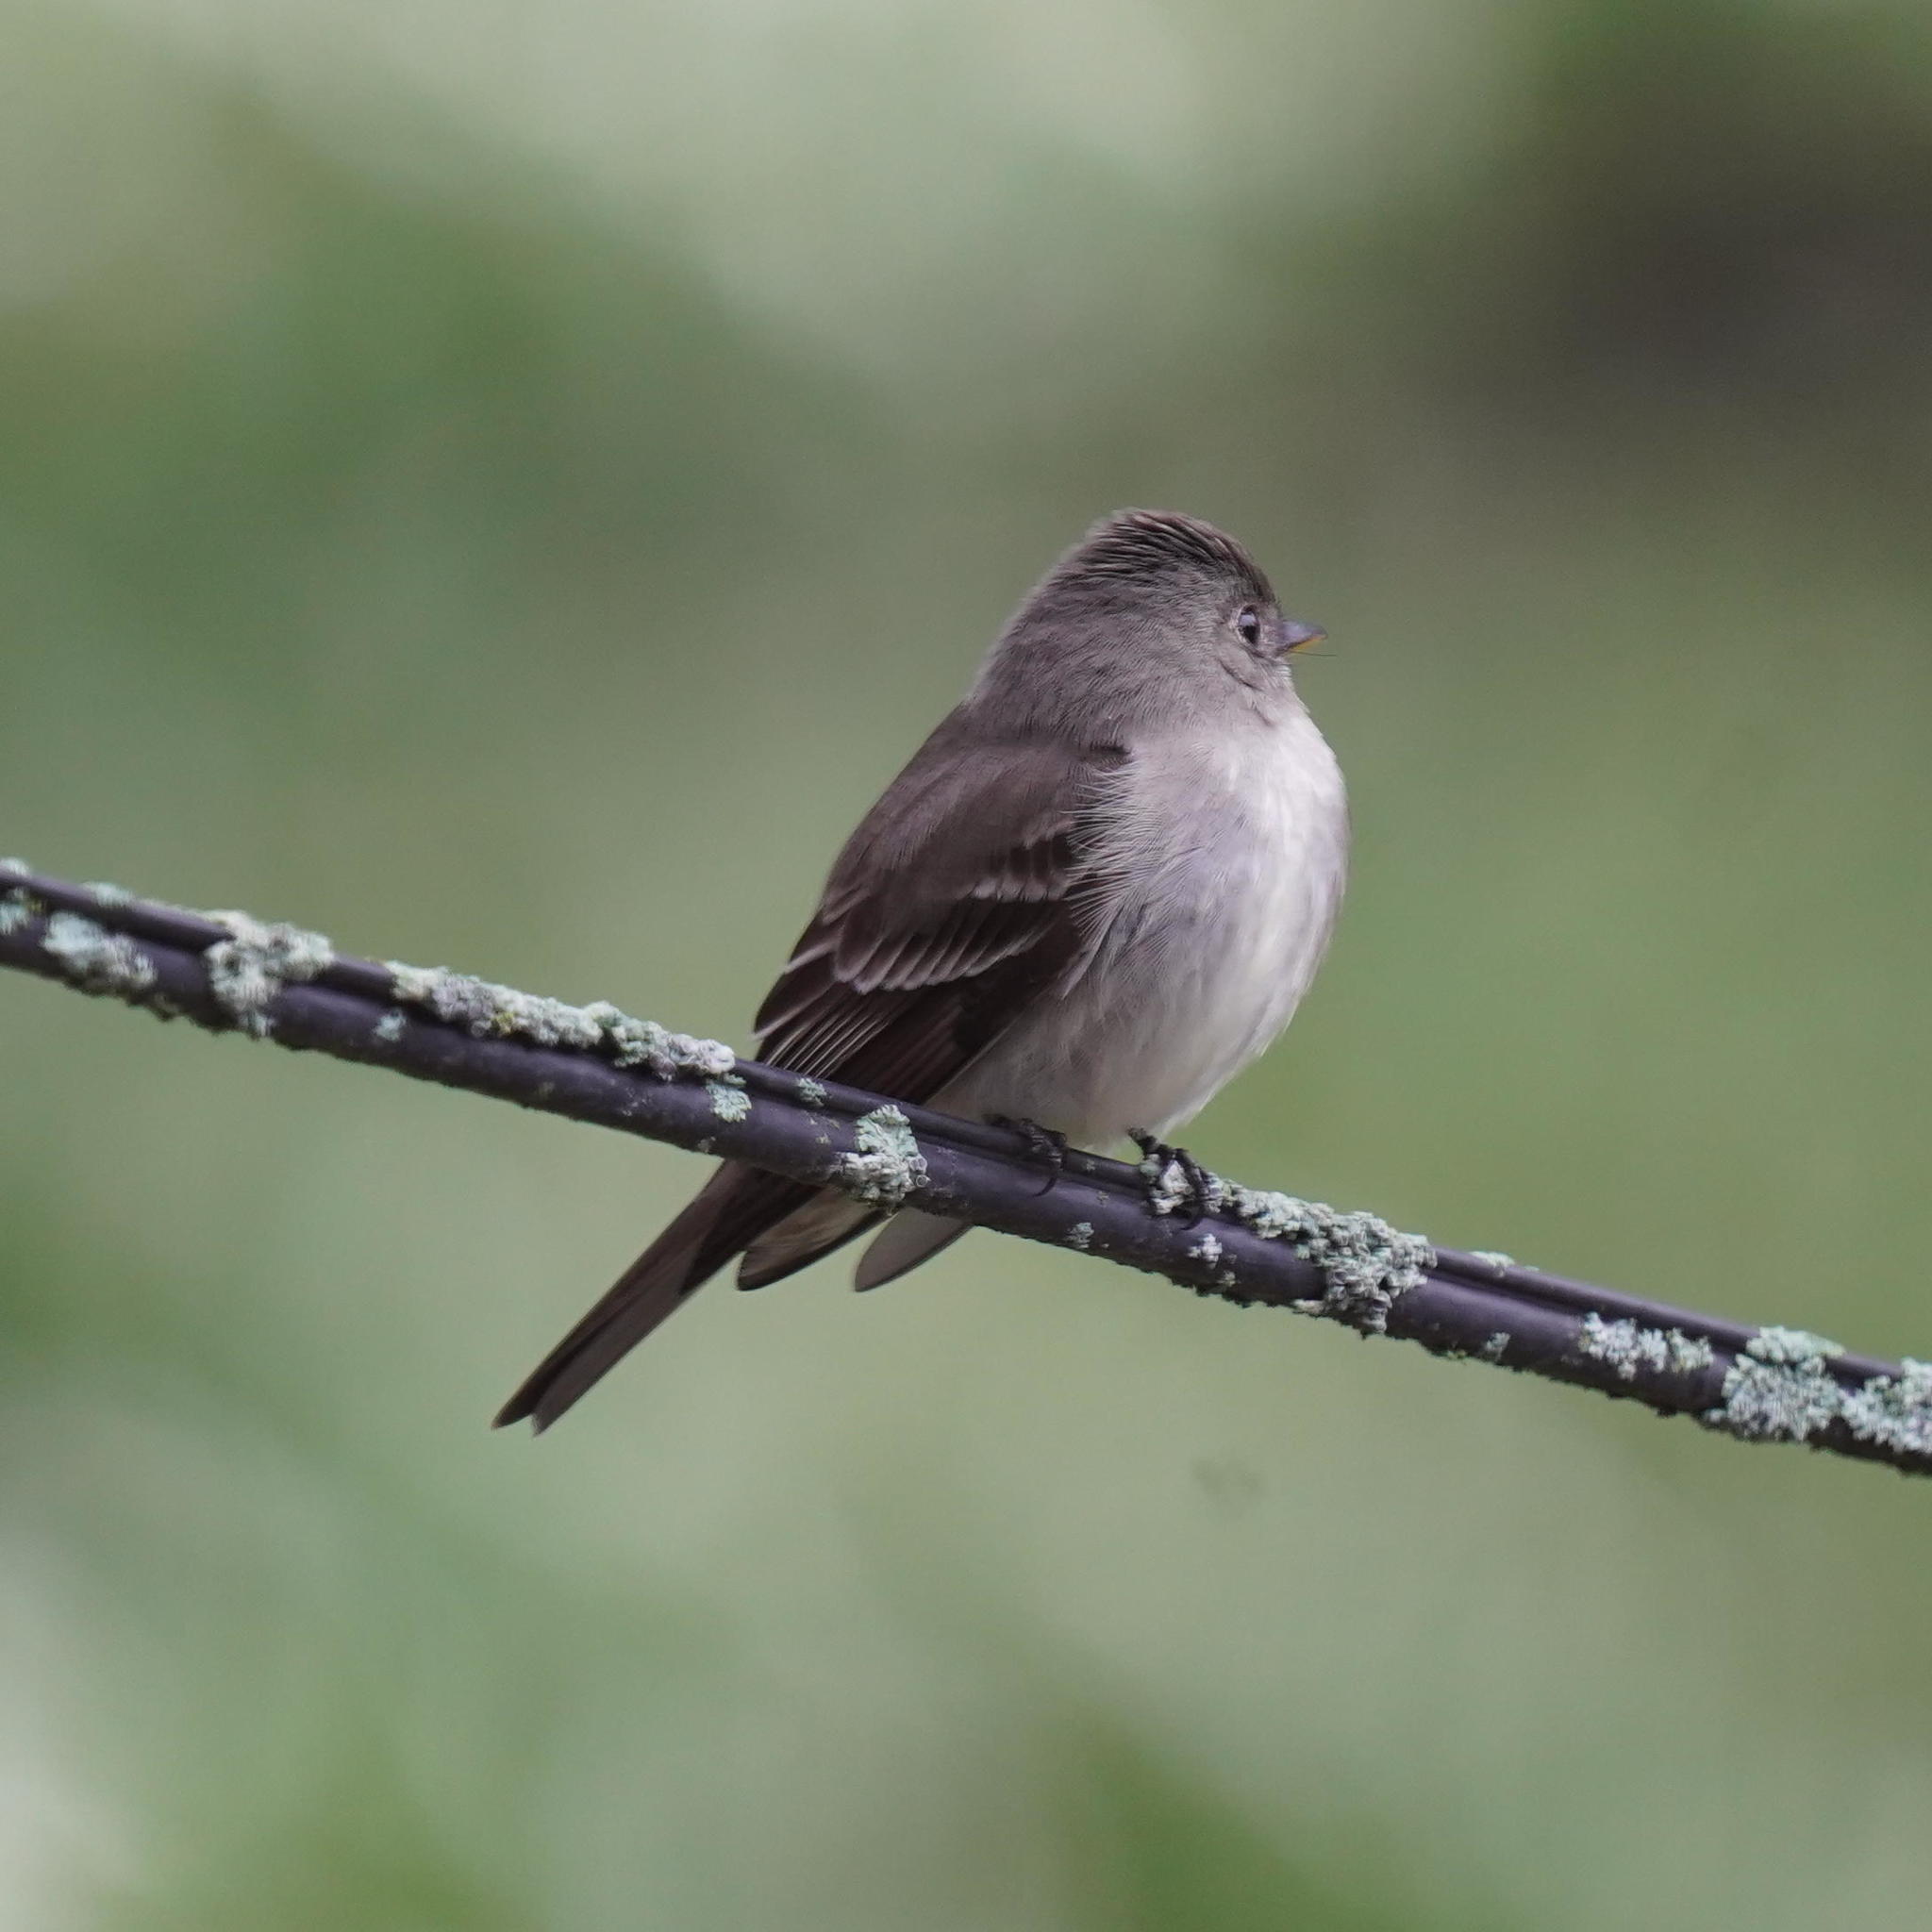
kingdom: Animalia
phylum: Chordata
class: Aves
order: Passeriformes
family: Tyrannidae
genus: Contopus
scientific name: Contopus virens
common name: Eastern wood-pewee
